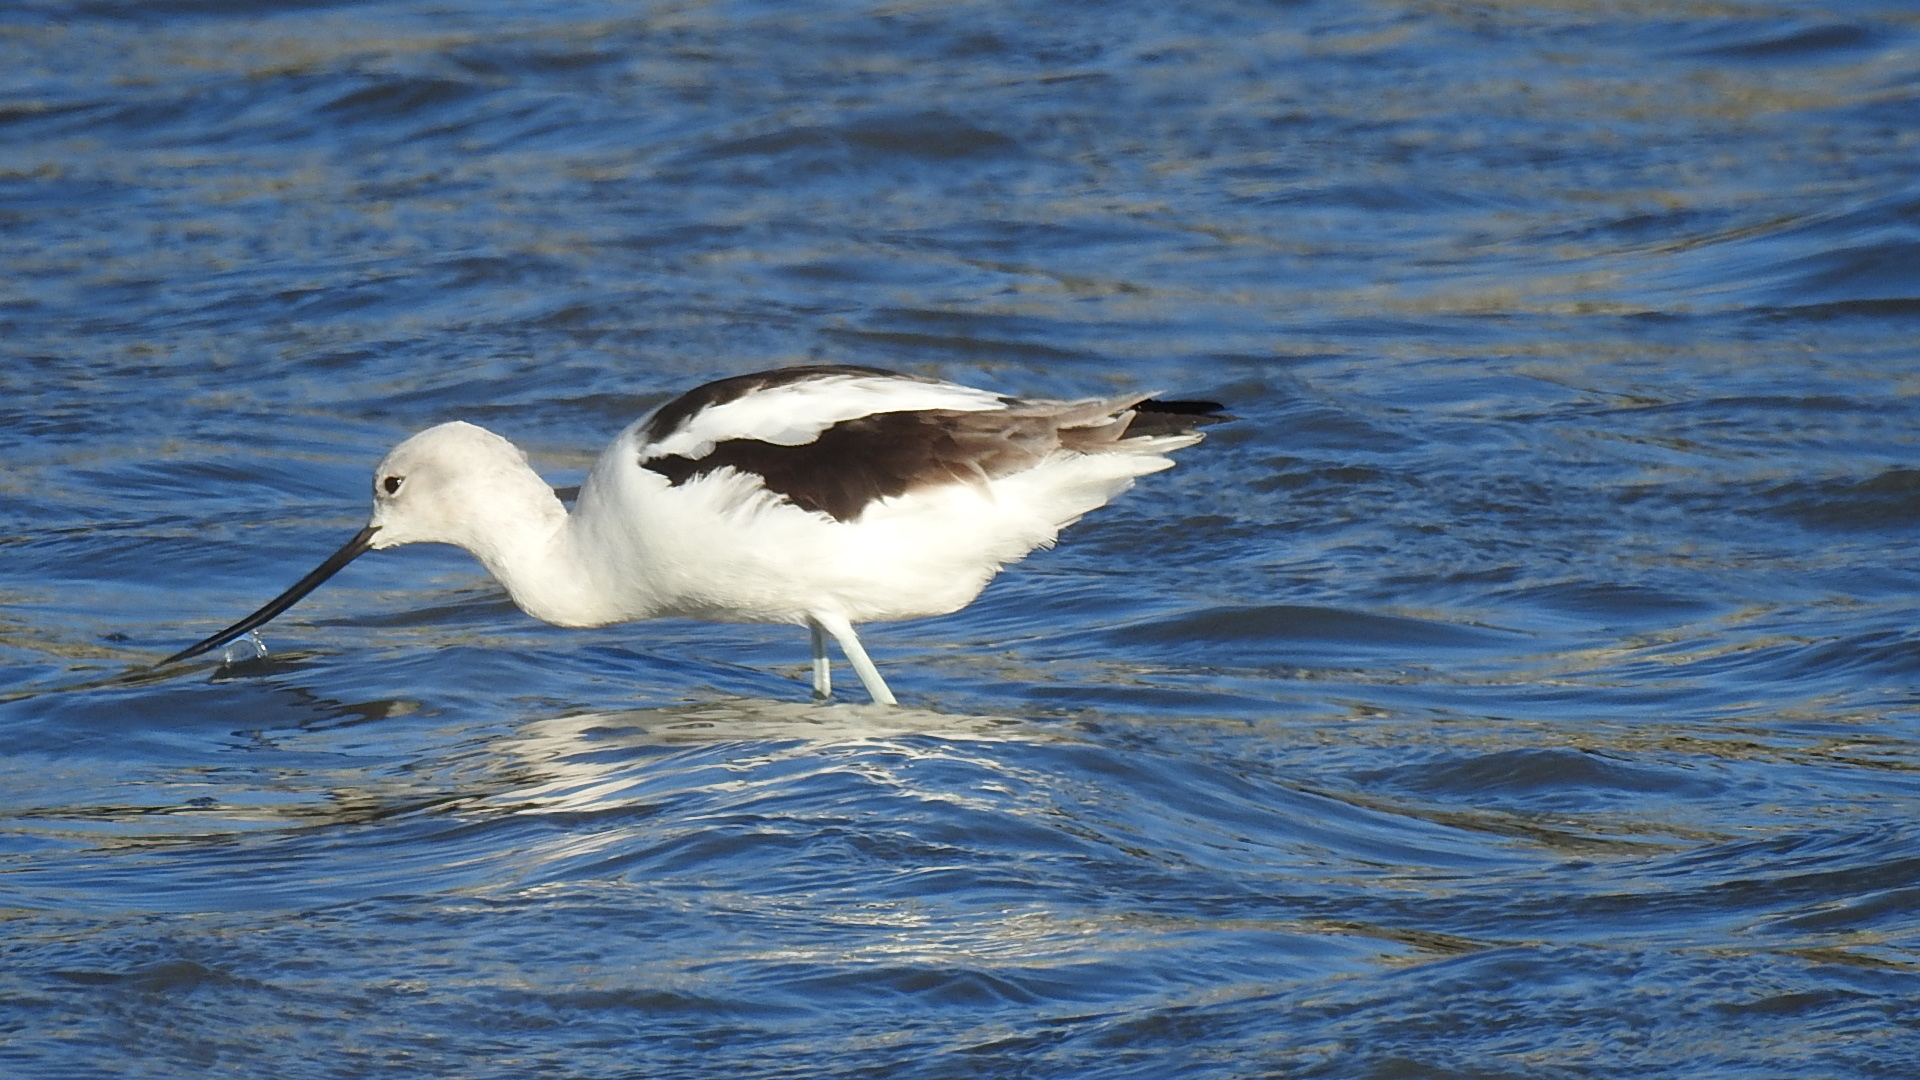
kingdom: Animalia
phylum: Chordata
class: Aves
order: Charadriiformes
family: Recurvirostridae
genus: Recurvirostra
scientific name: Recurvirostra americana
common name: American avocet
